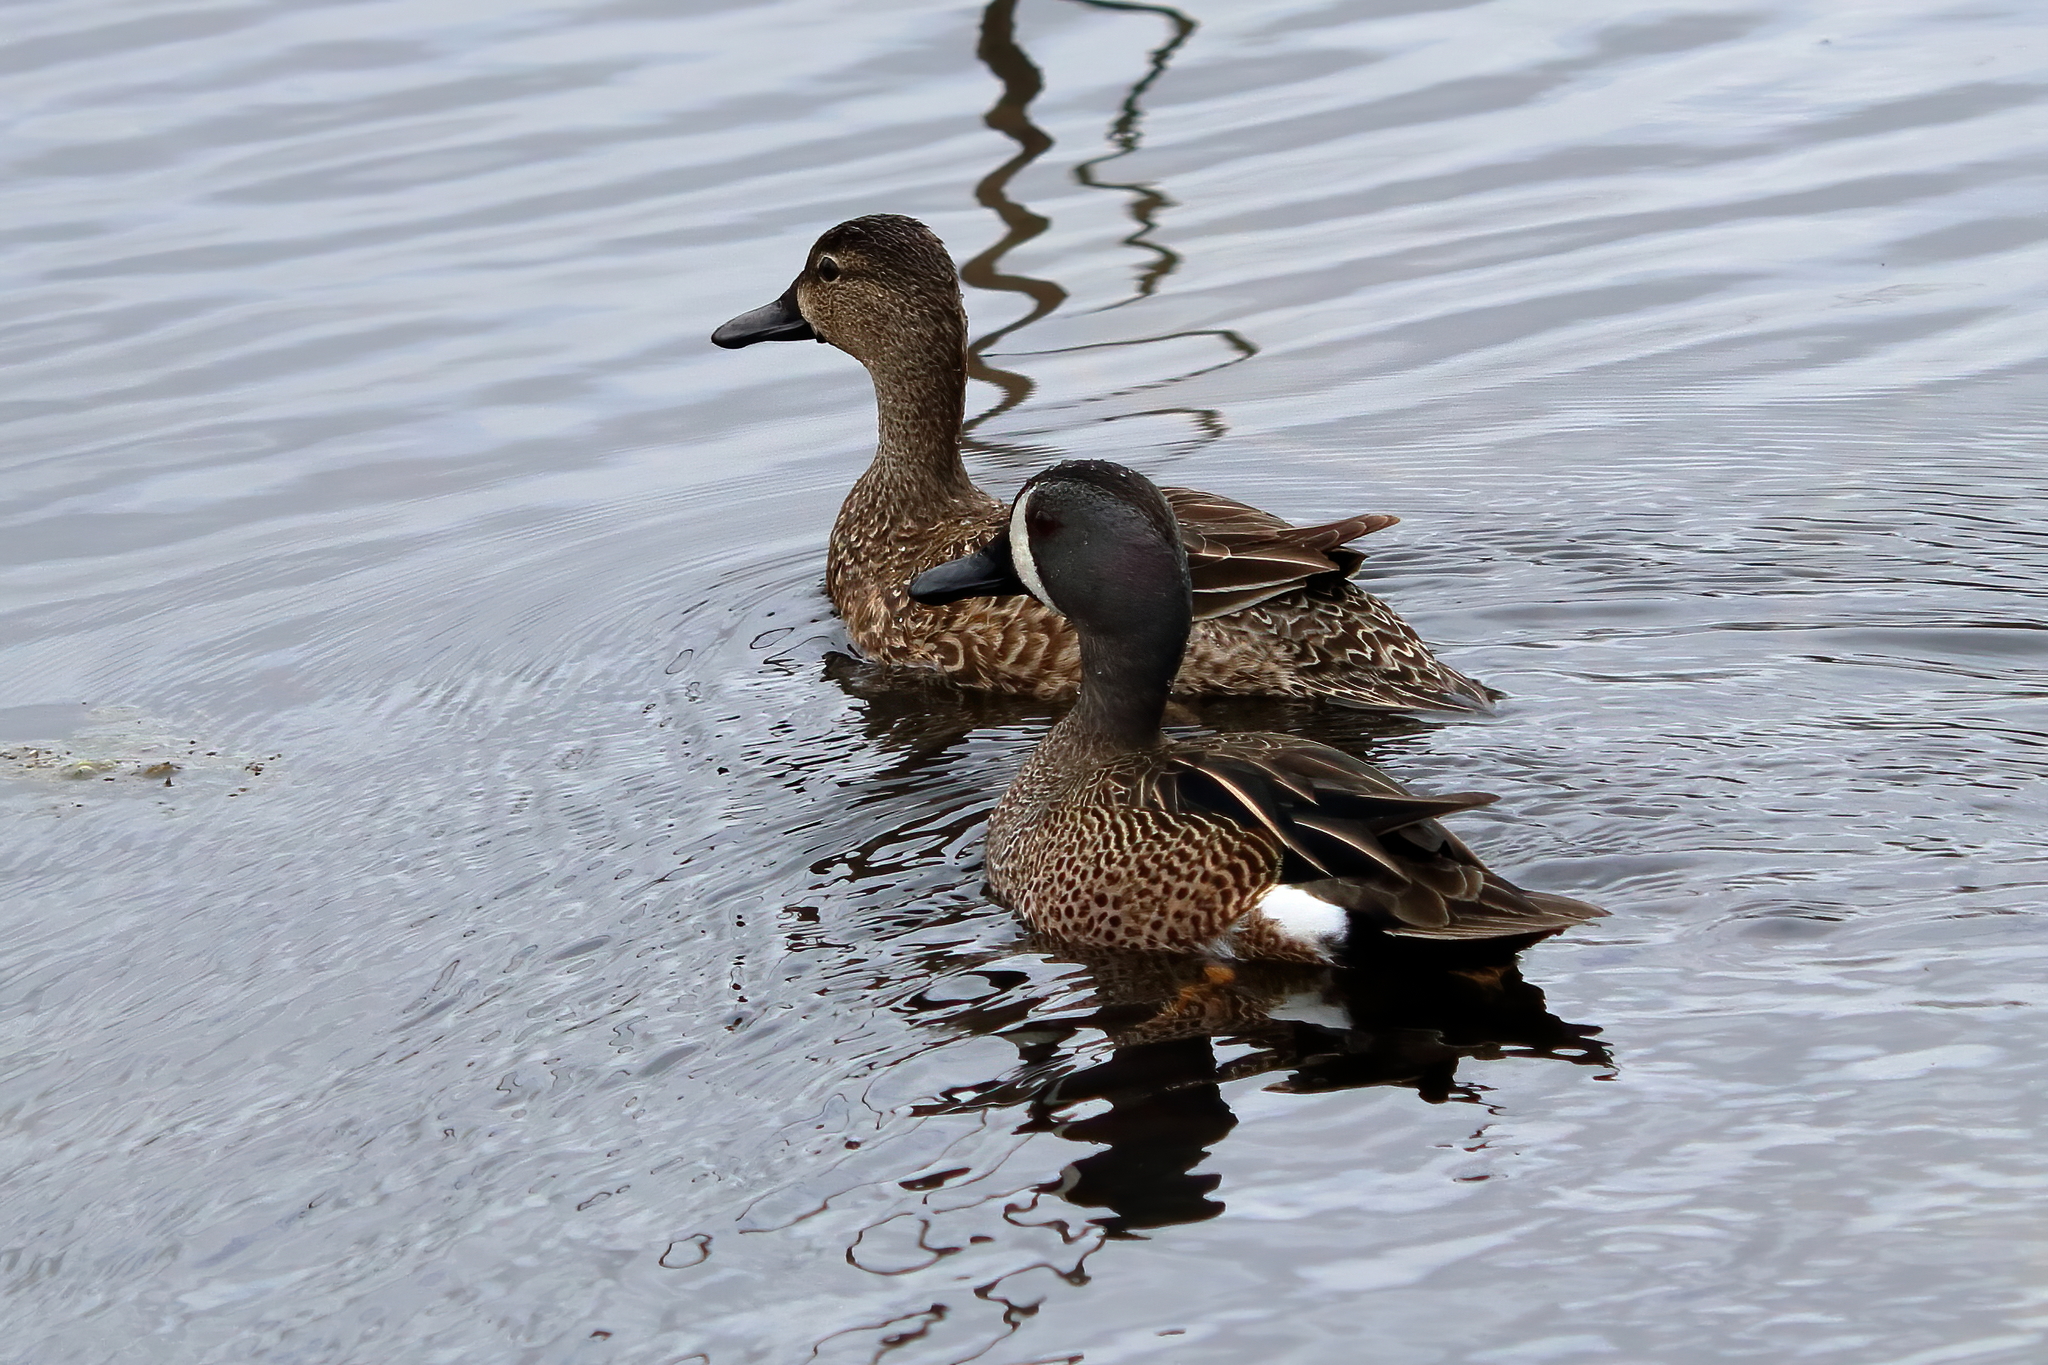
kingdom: Animalia
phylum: Chordata
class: Aves
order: Anseriformes
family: Anatidae
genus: Spatula
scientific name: Spatula discors
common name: Blue-winged teal
